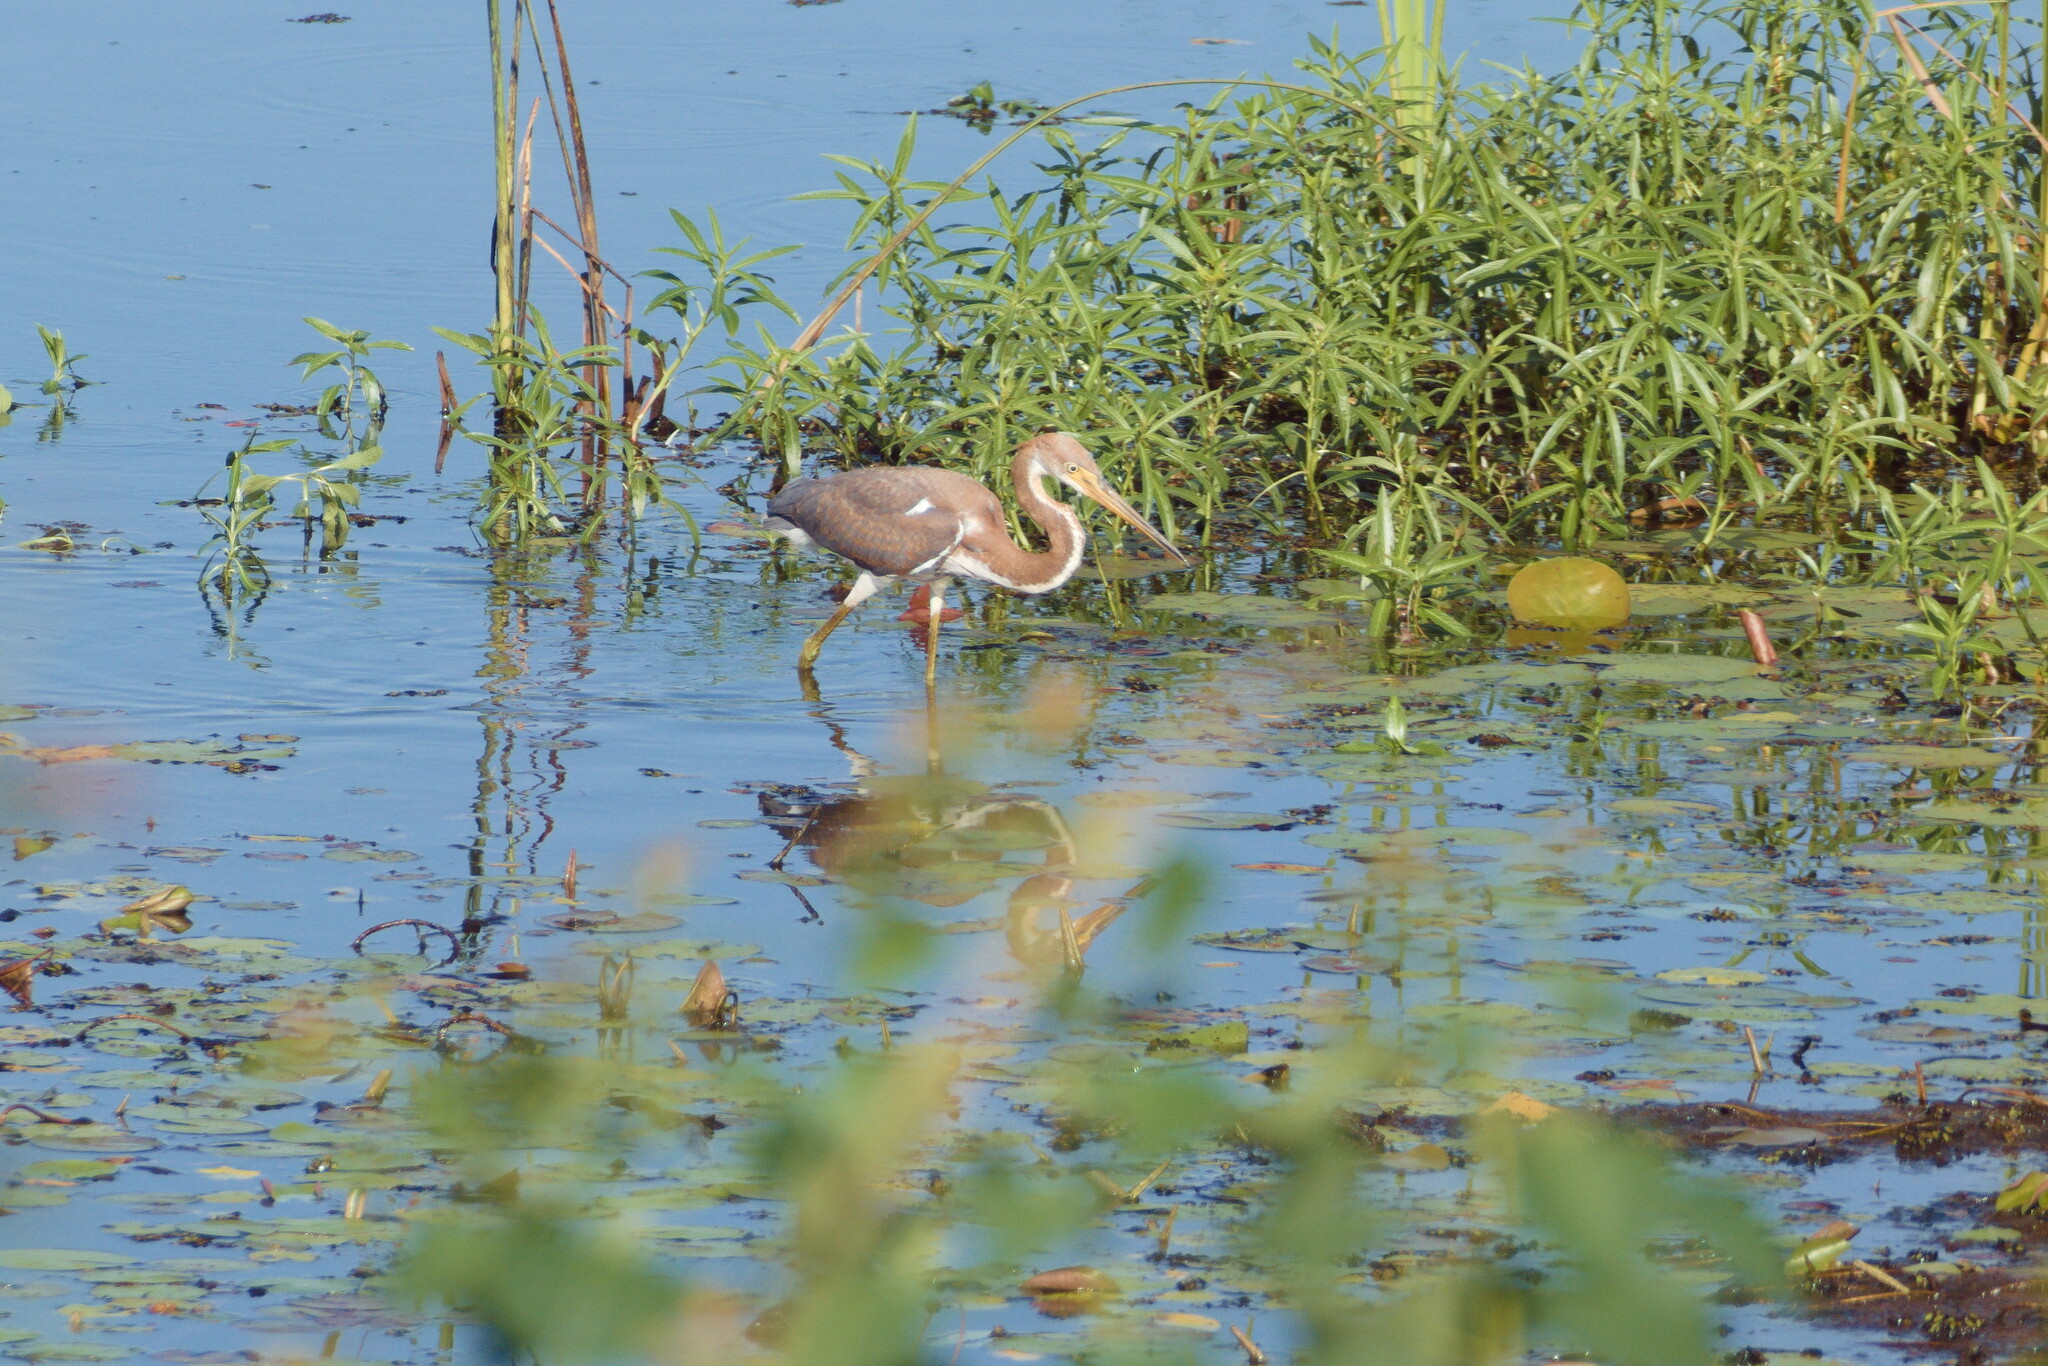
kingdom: Animalia
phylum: Chordata
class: Aves
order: Pelecaniformes
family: Ardeidae
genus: Egretta
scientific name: Egretta tricolor
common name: Tricolored heron
